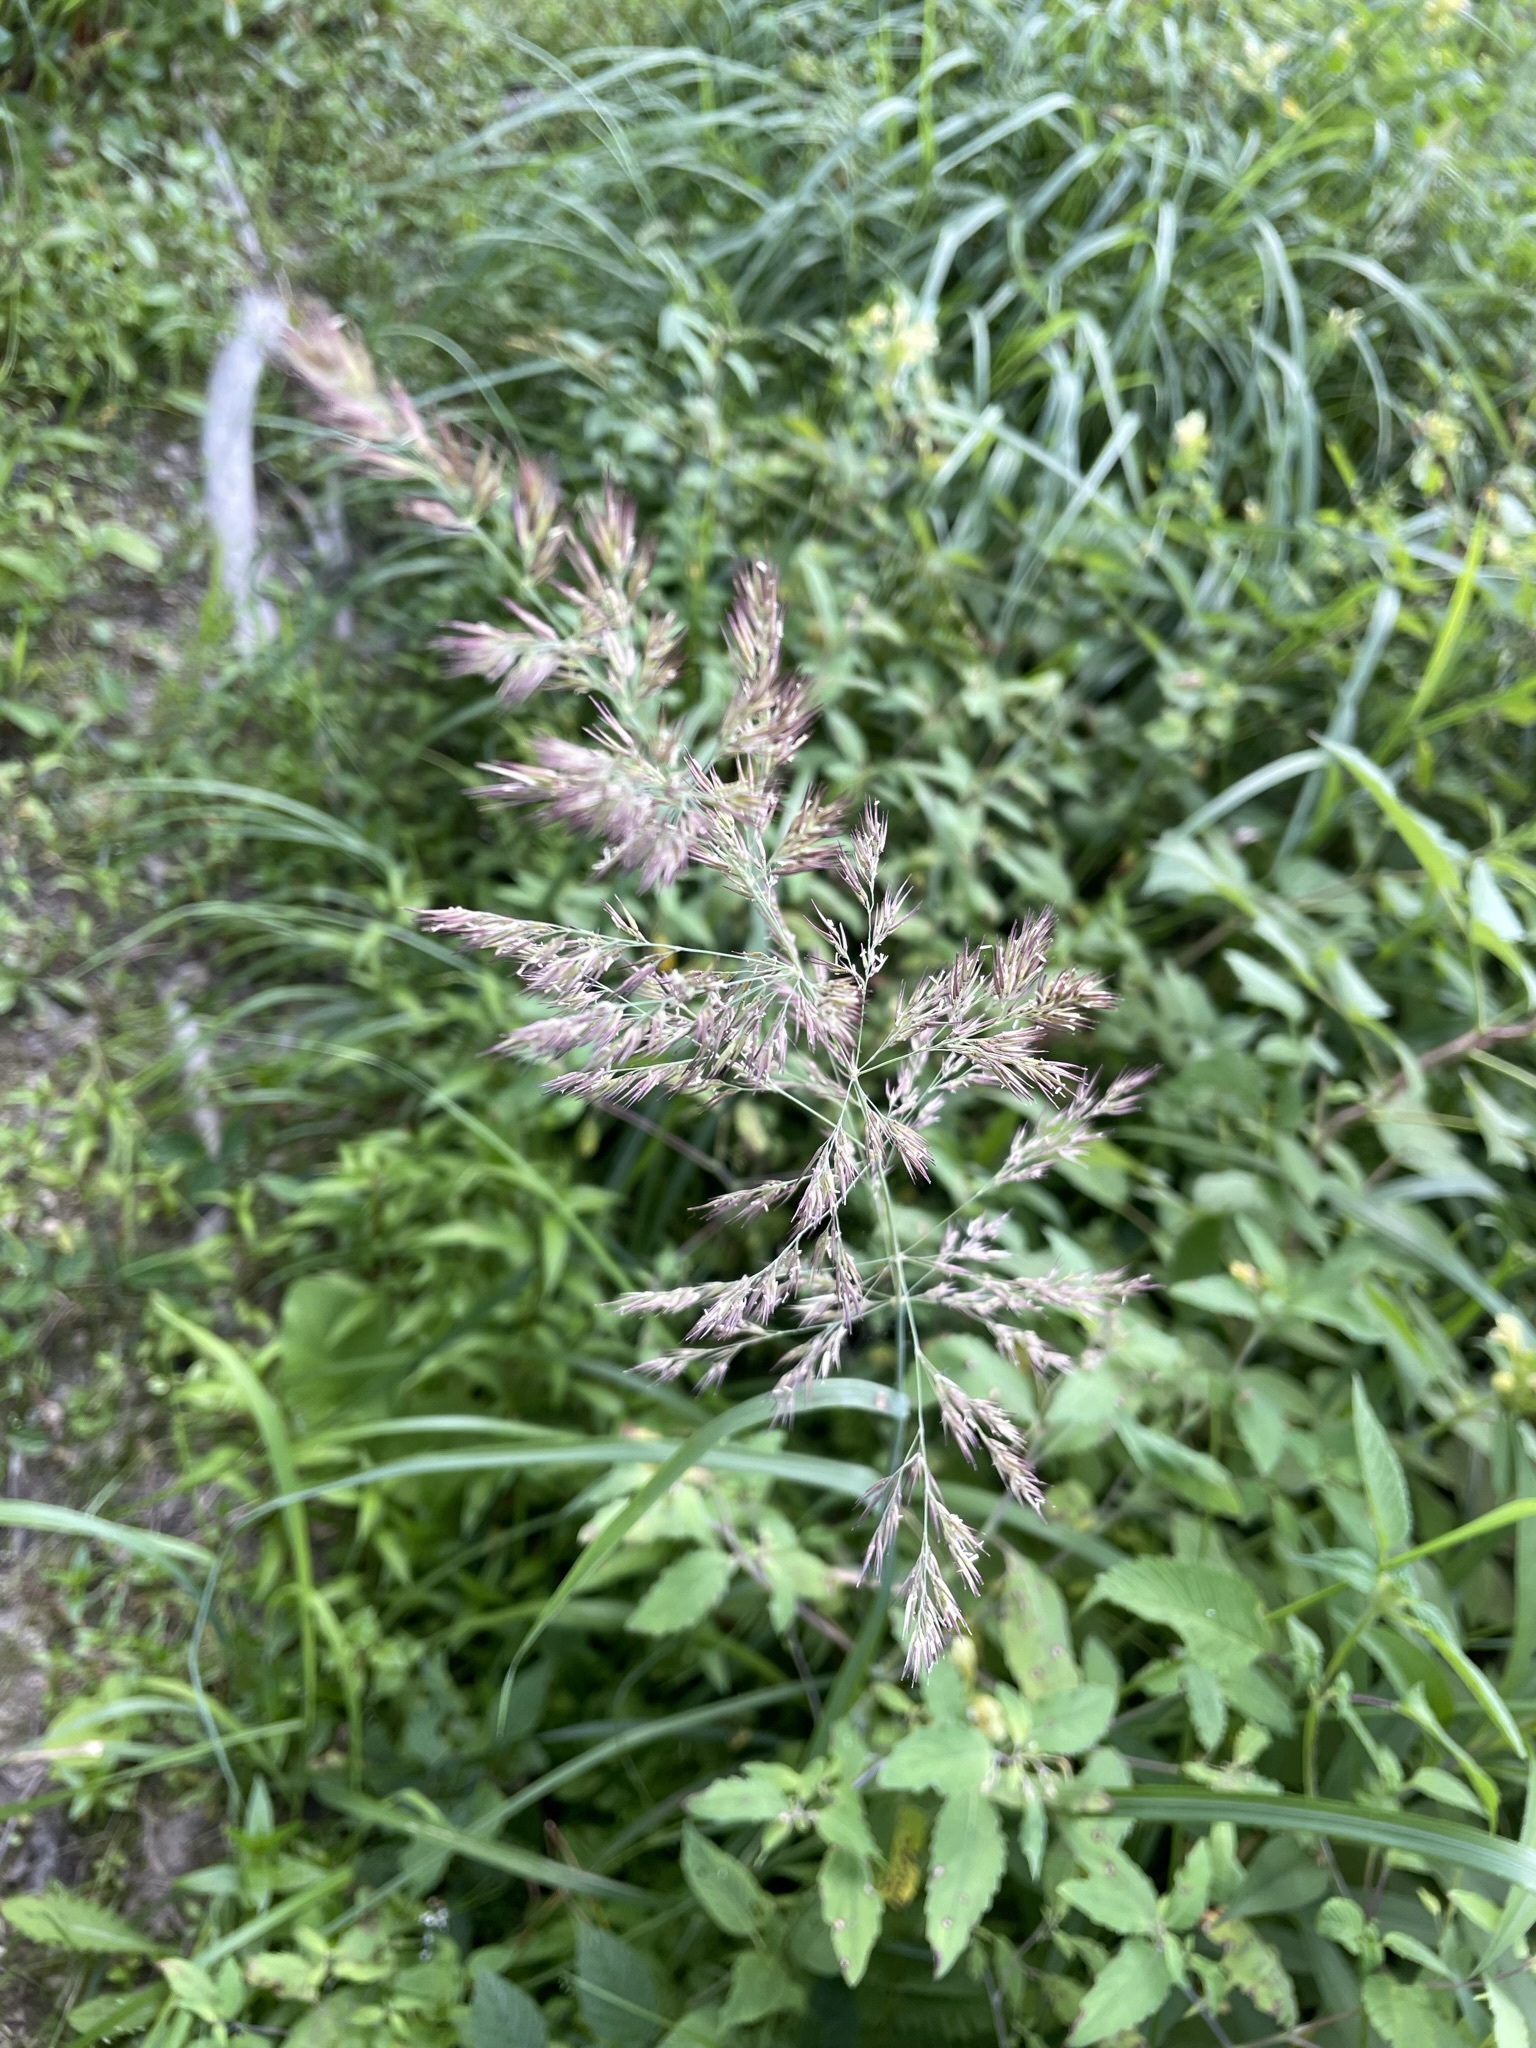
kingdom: Plantae
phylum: Tracheophyta
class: Liliopsida
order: Poales
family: Poaceae
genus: Calamagrostis
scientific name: Calamagrostis epigejos
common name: Wood small-reed
